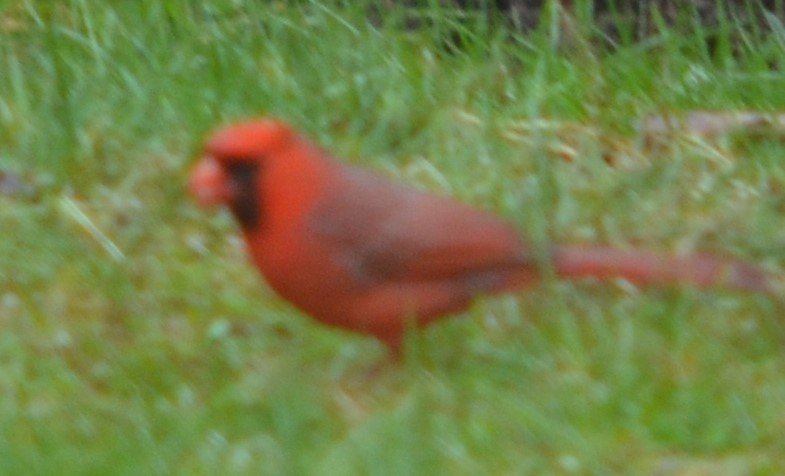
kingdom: Animalia
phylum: Chordata
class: Aves
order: Passeriformes
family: Cardinalidae
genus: Cardinalis
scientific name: Cardinalis cardinalis
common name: Northern cardinal
